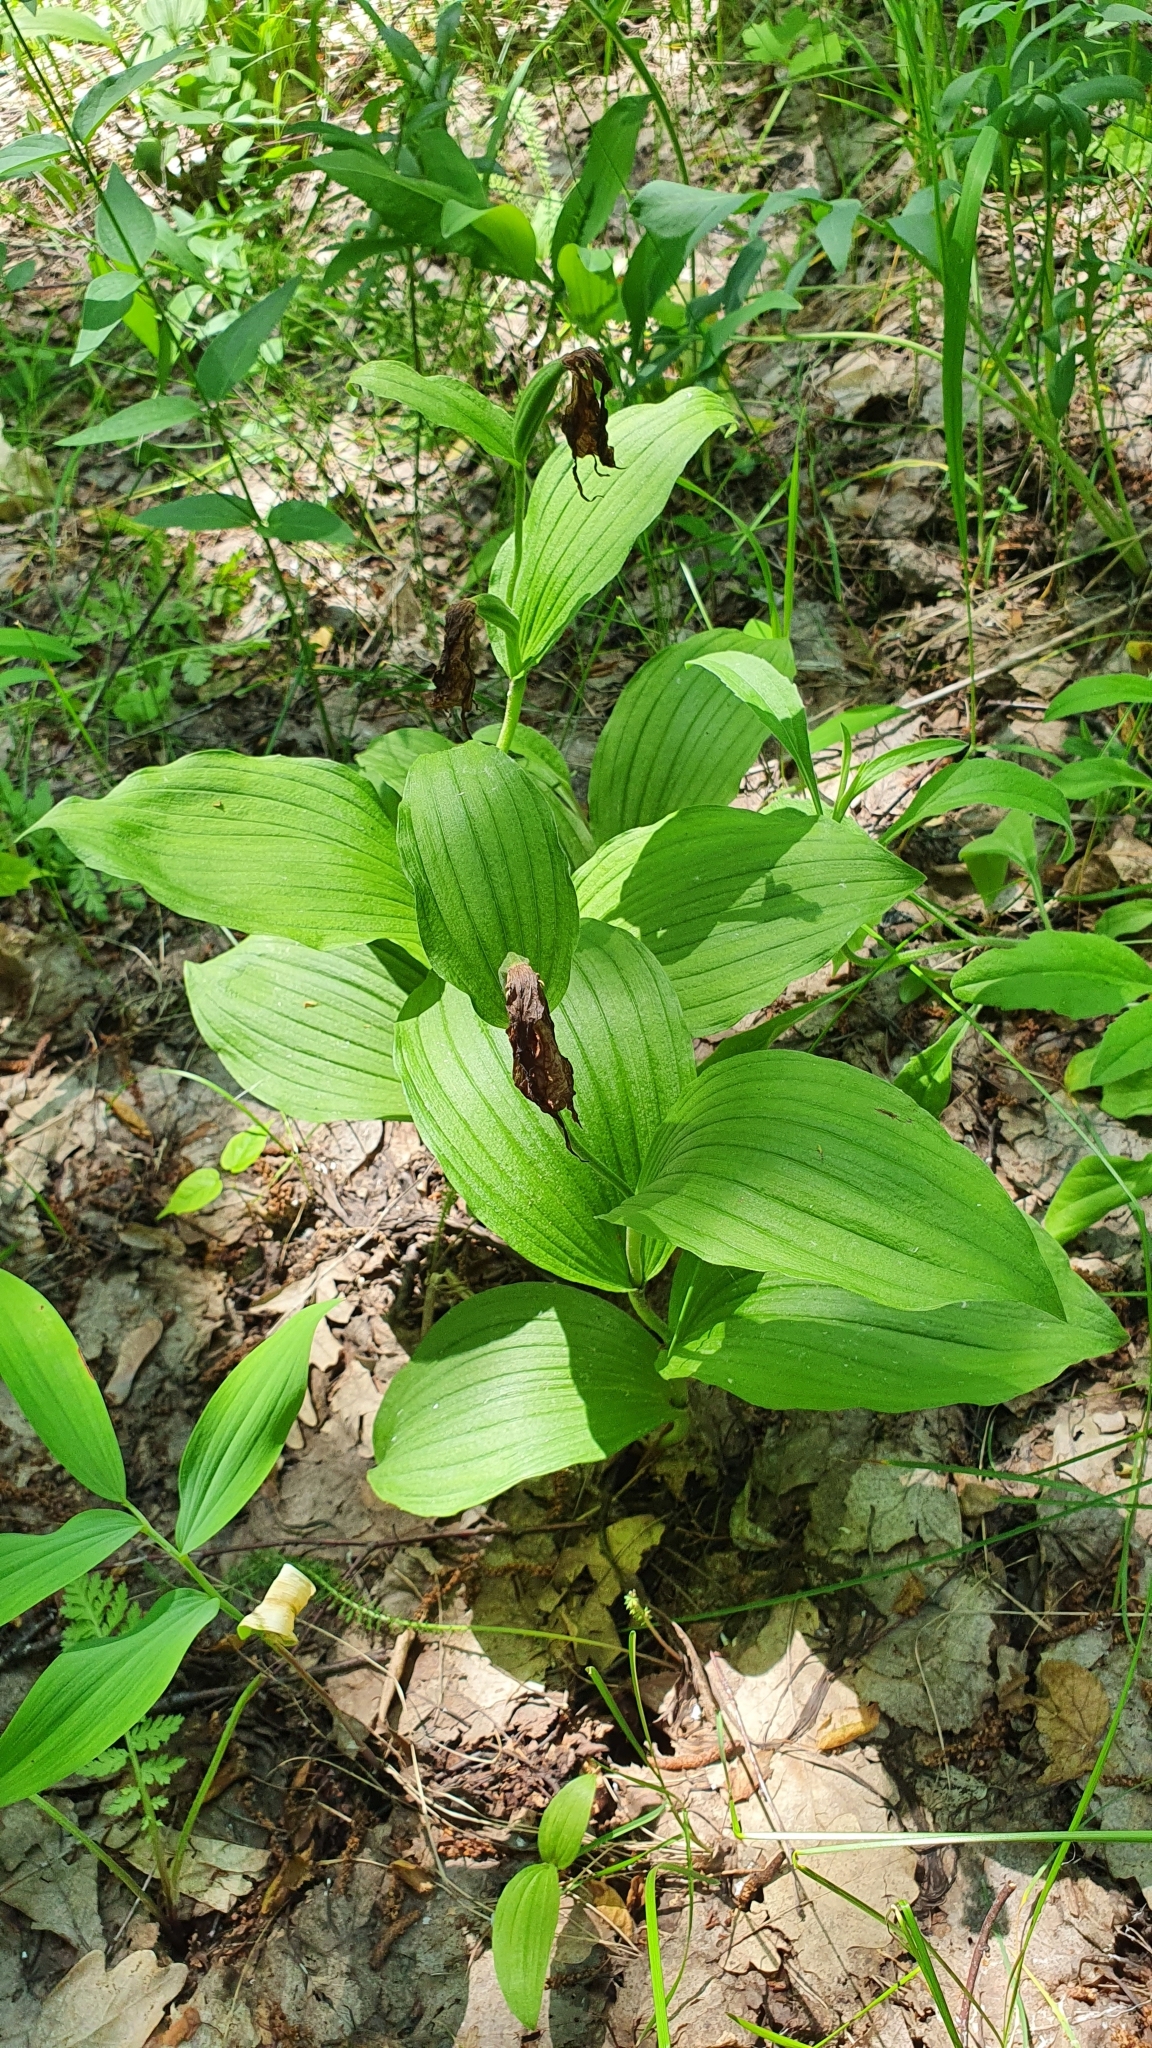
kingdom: Plantae
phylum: Tracheophyta
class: Liliopsida
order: Asparagales
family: Orchidaceae
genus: Cypripedium
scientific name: Cypripedium calceolus
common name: Lady's-slipper
